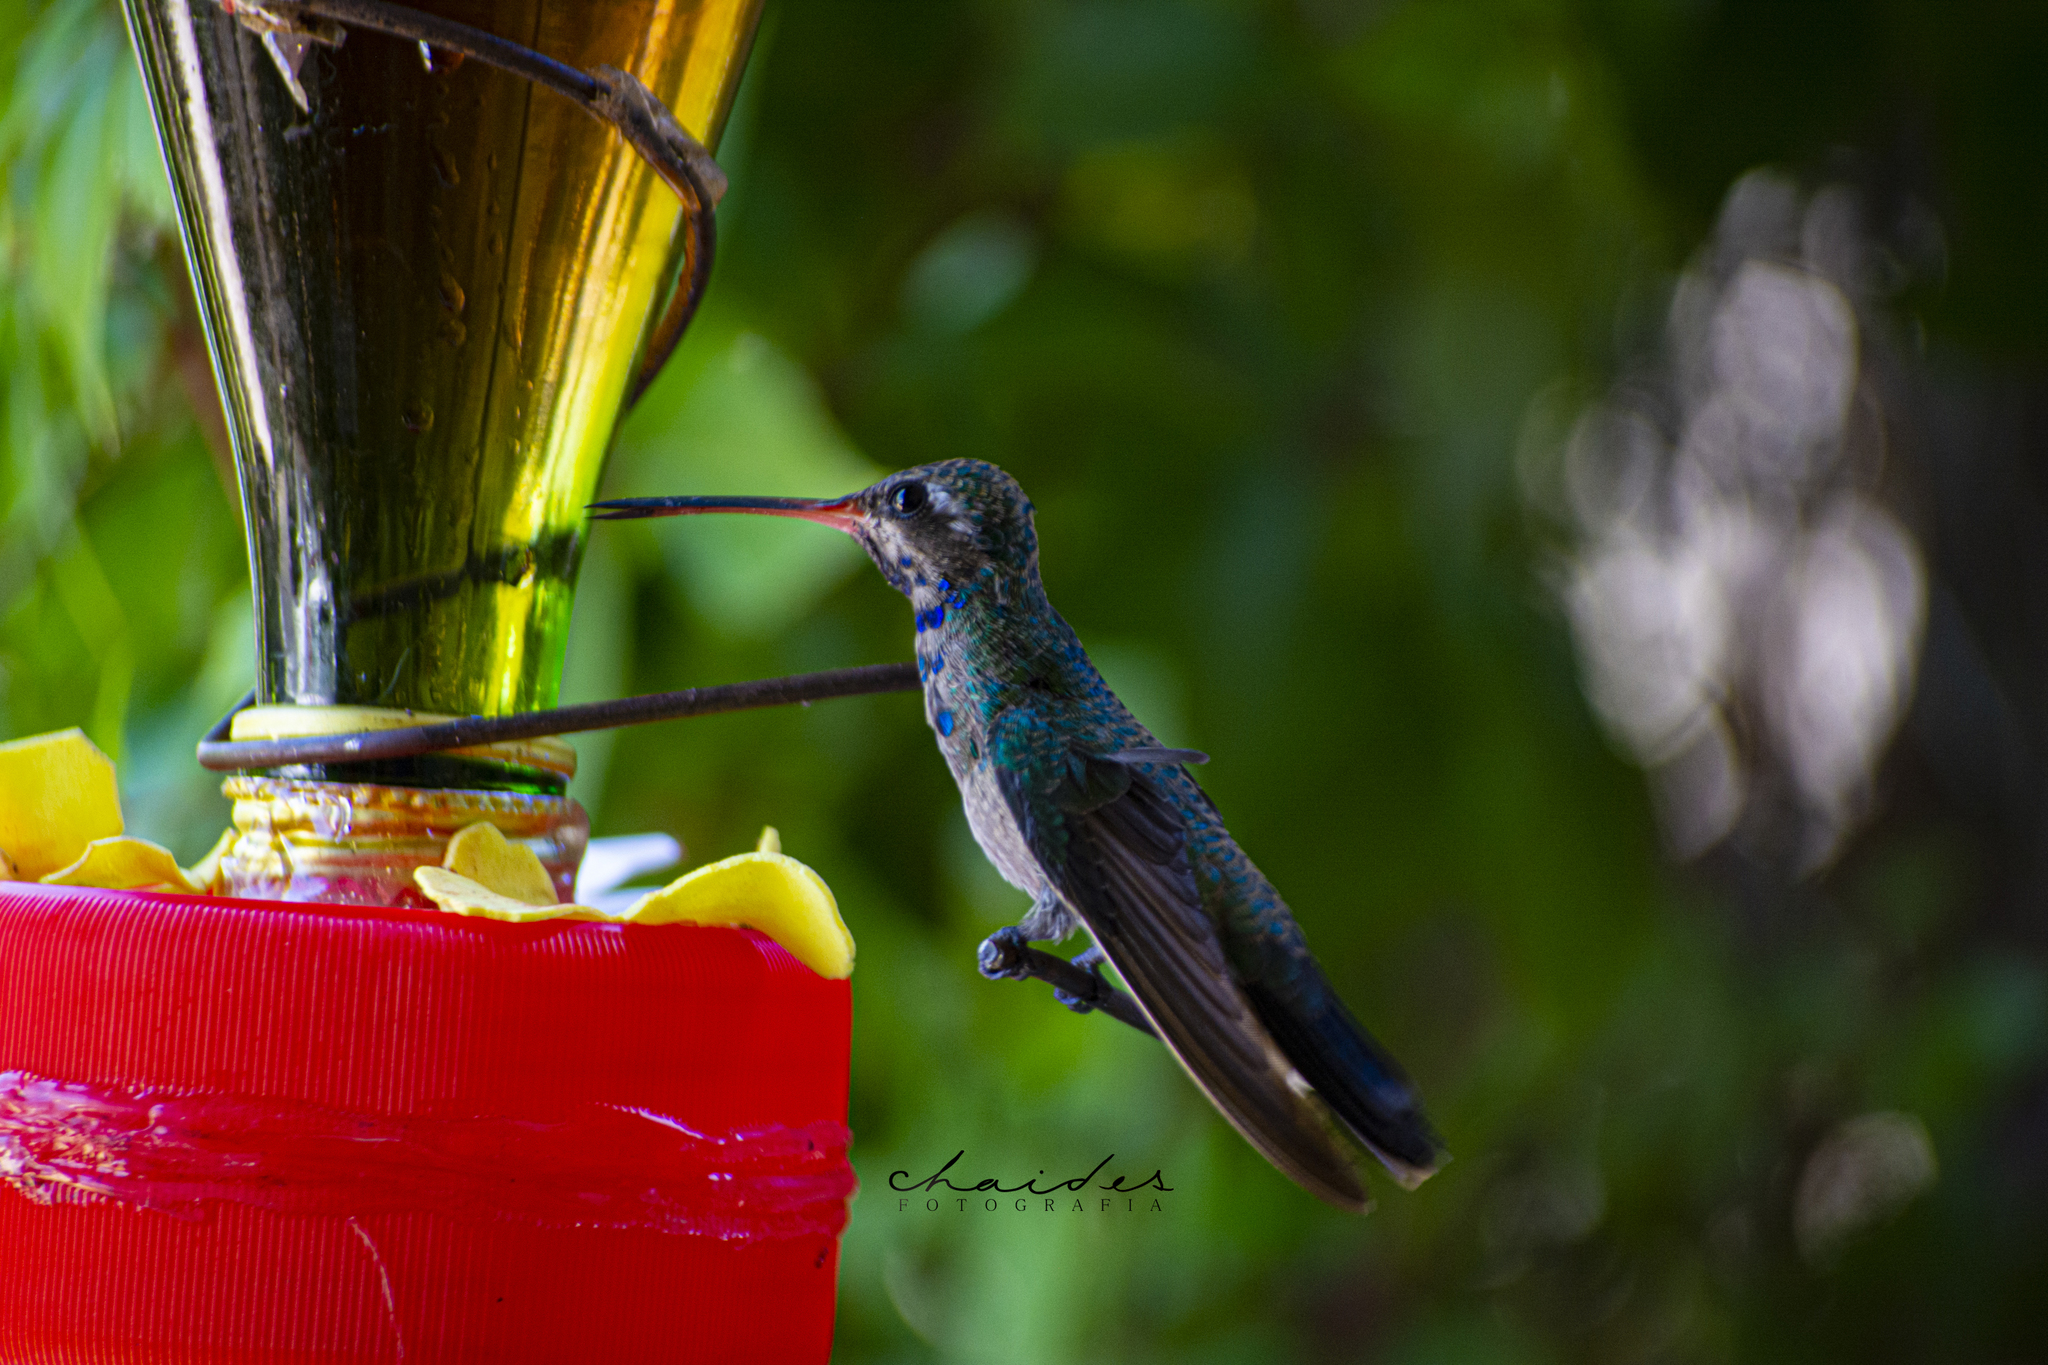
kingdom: Animalia
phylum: Chordata
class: Aves
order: Apodiformes
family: Trochilidae
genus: Cynanthus
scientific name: Cynanthus latirostris
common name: Broad-billed hummingbird
